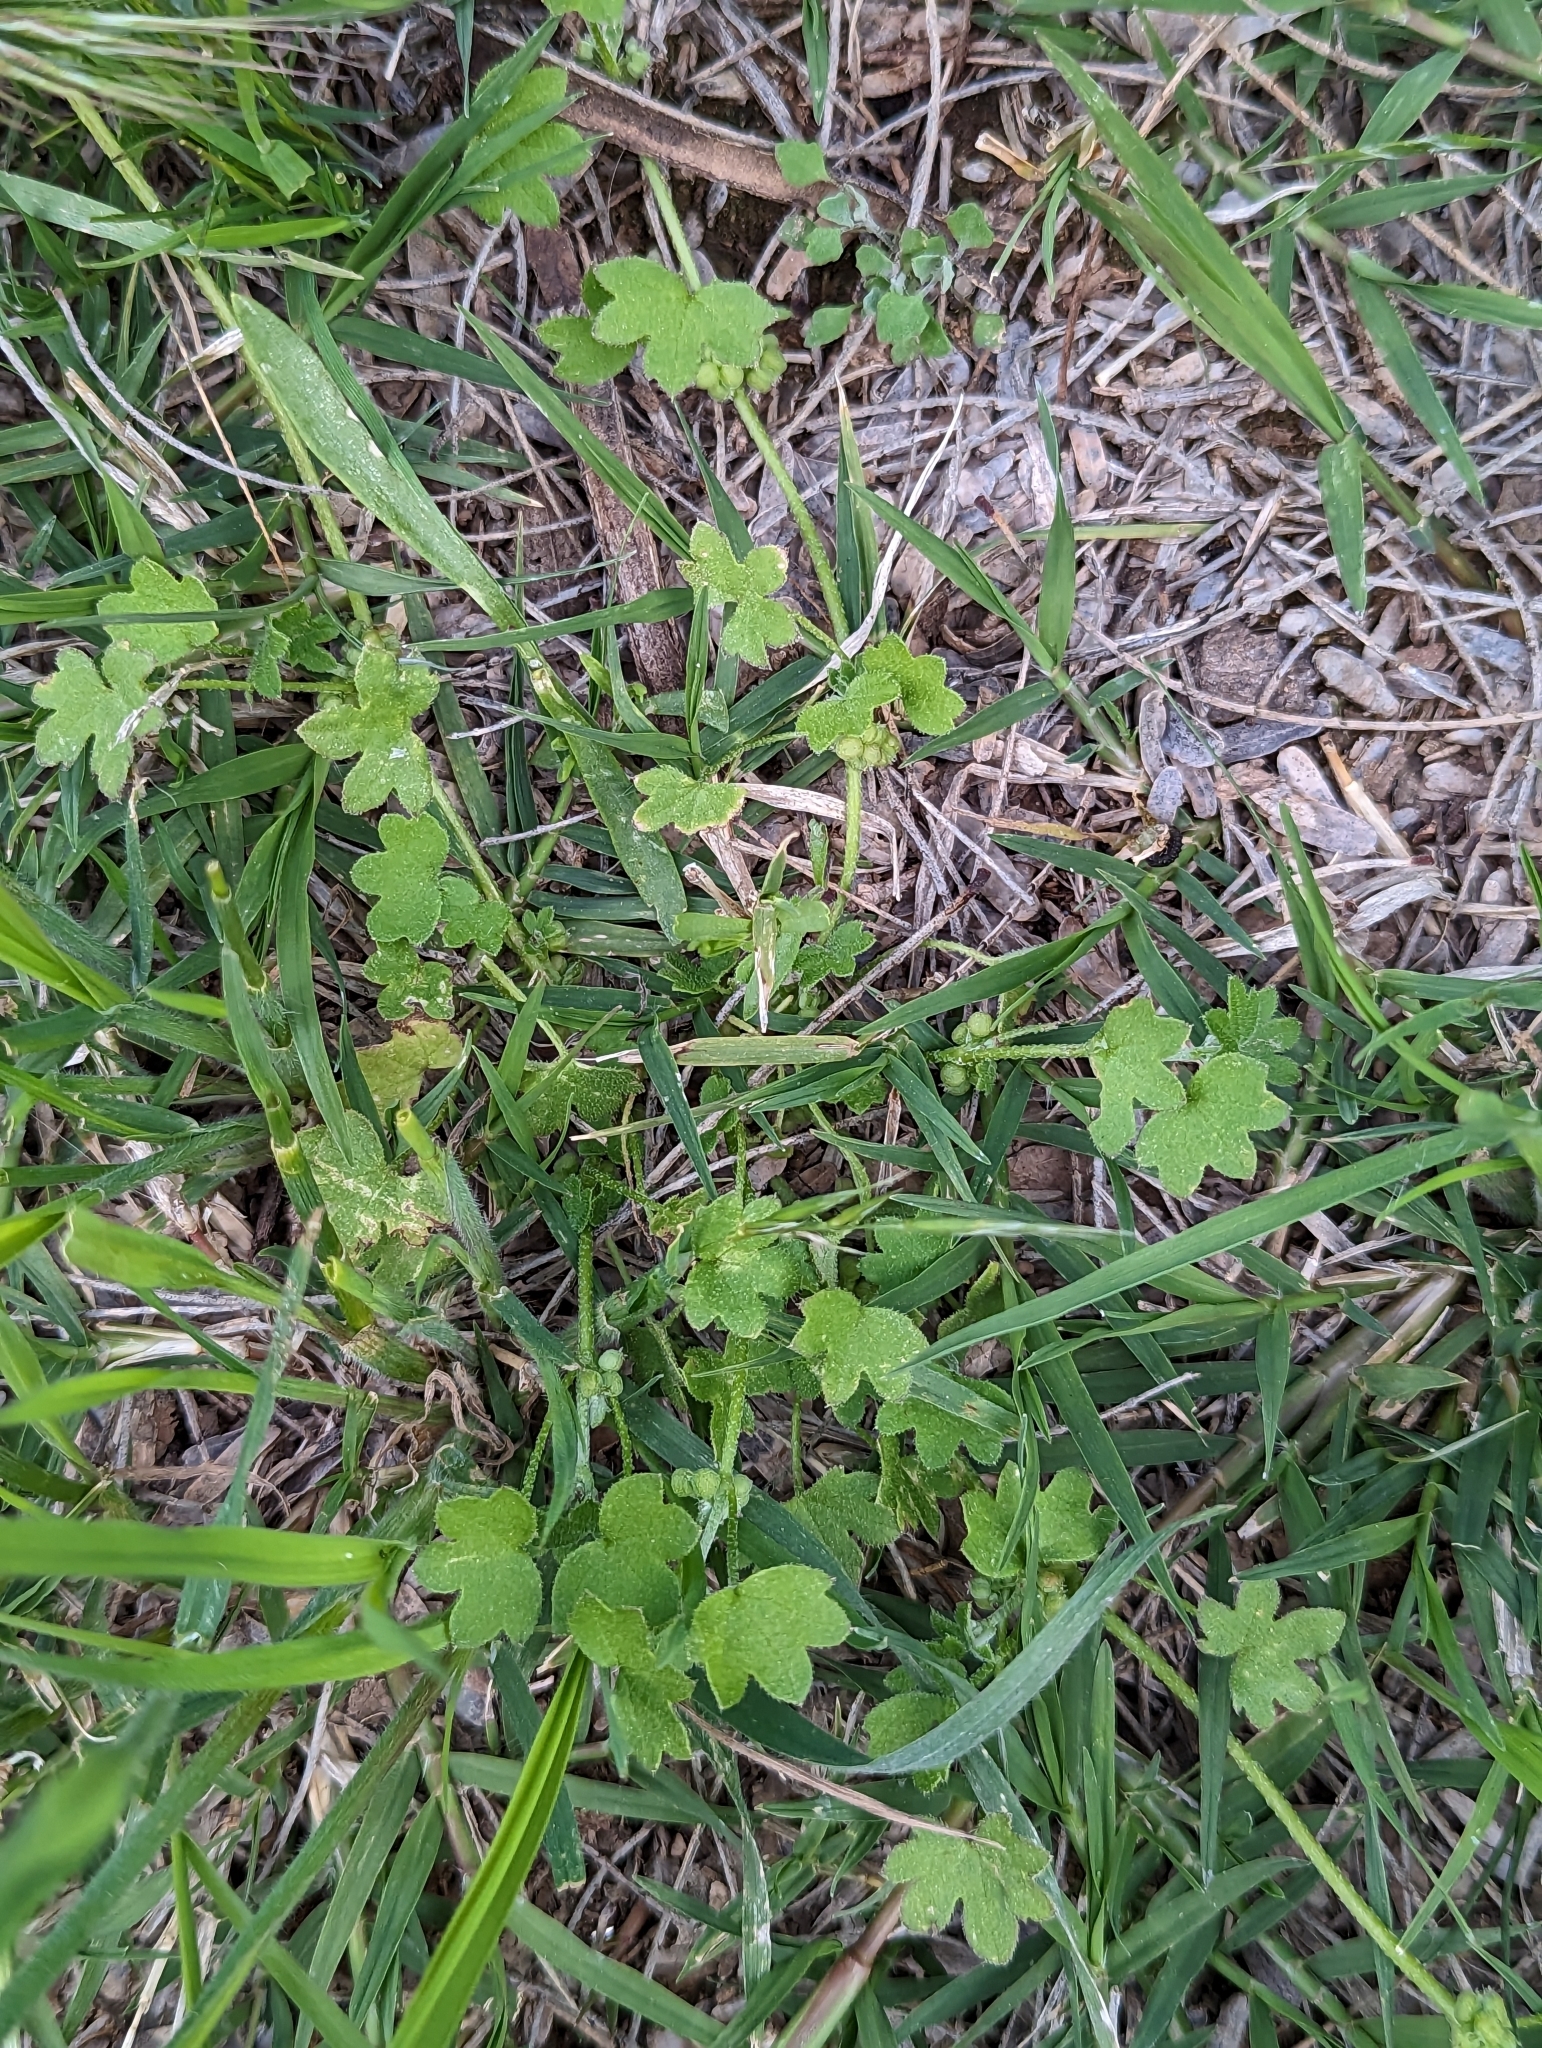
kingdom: Plantae
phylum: Tracheophyta
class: Magnoliopsida
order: Apiales
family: Apiaceae
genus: Bowlesia
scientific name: Bowlesia incana
